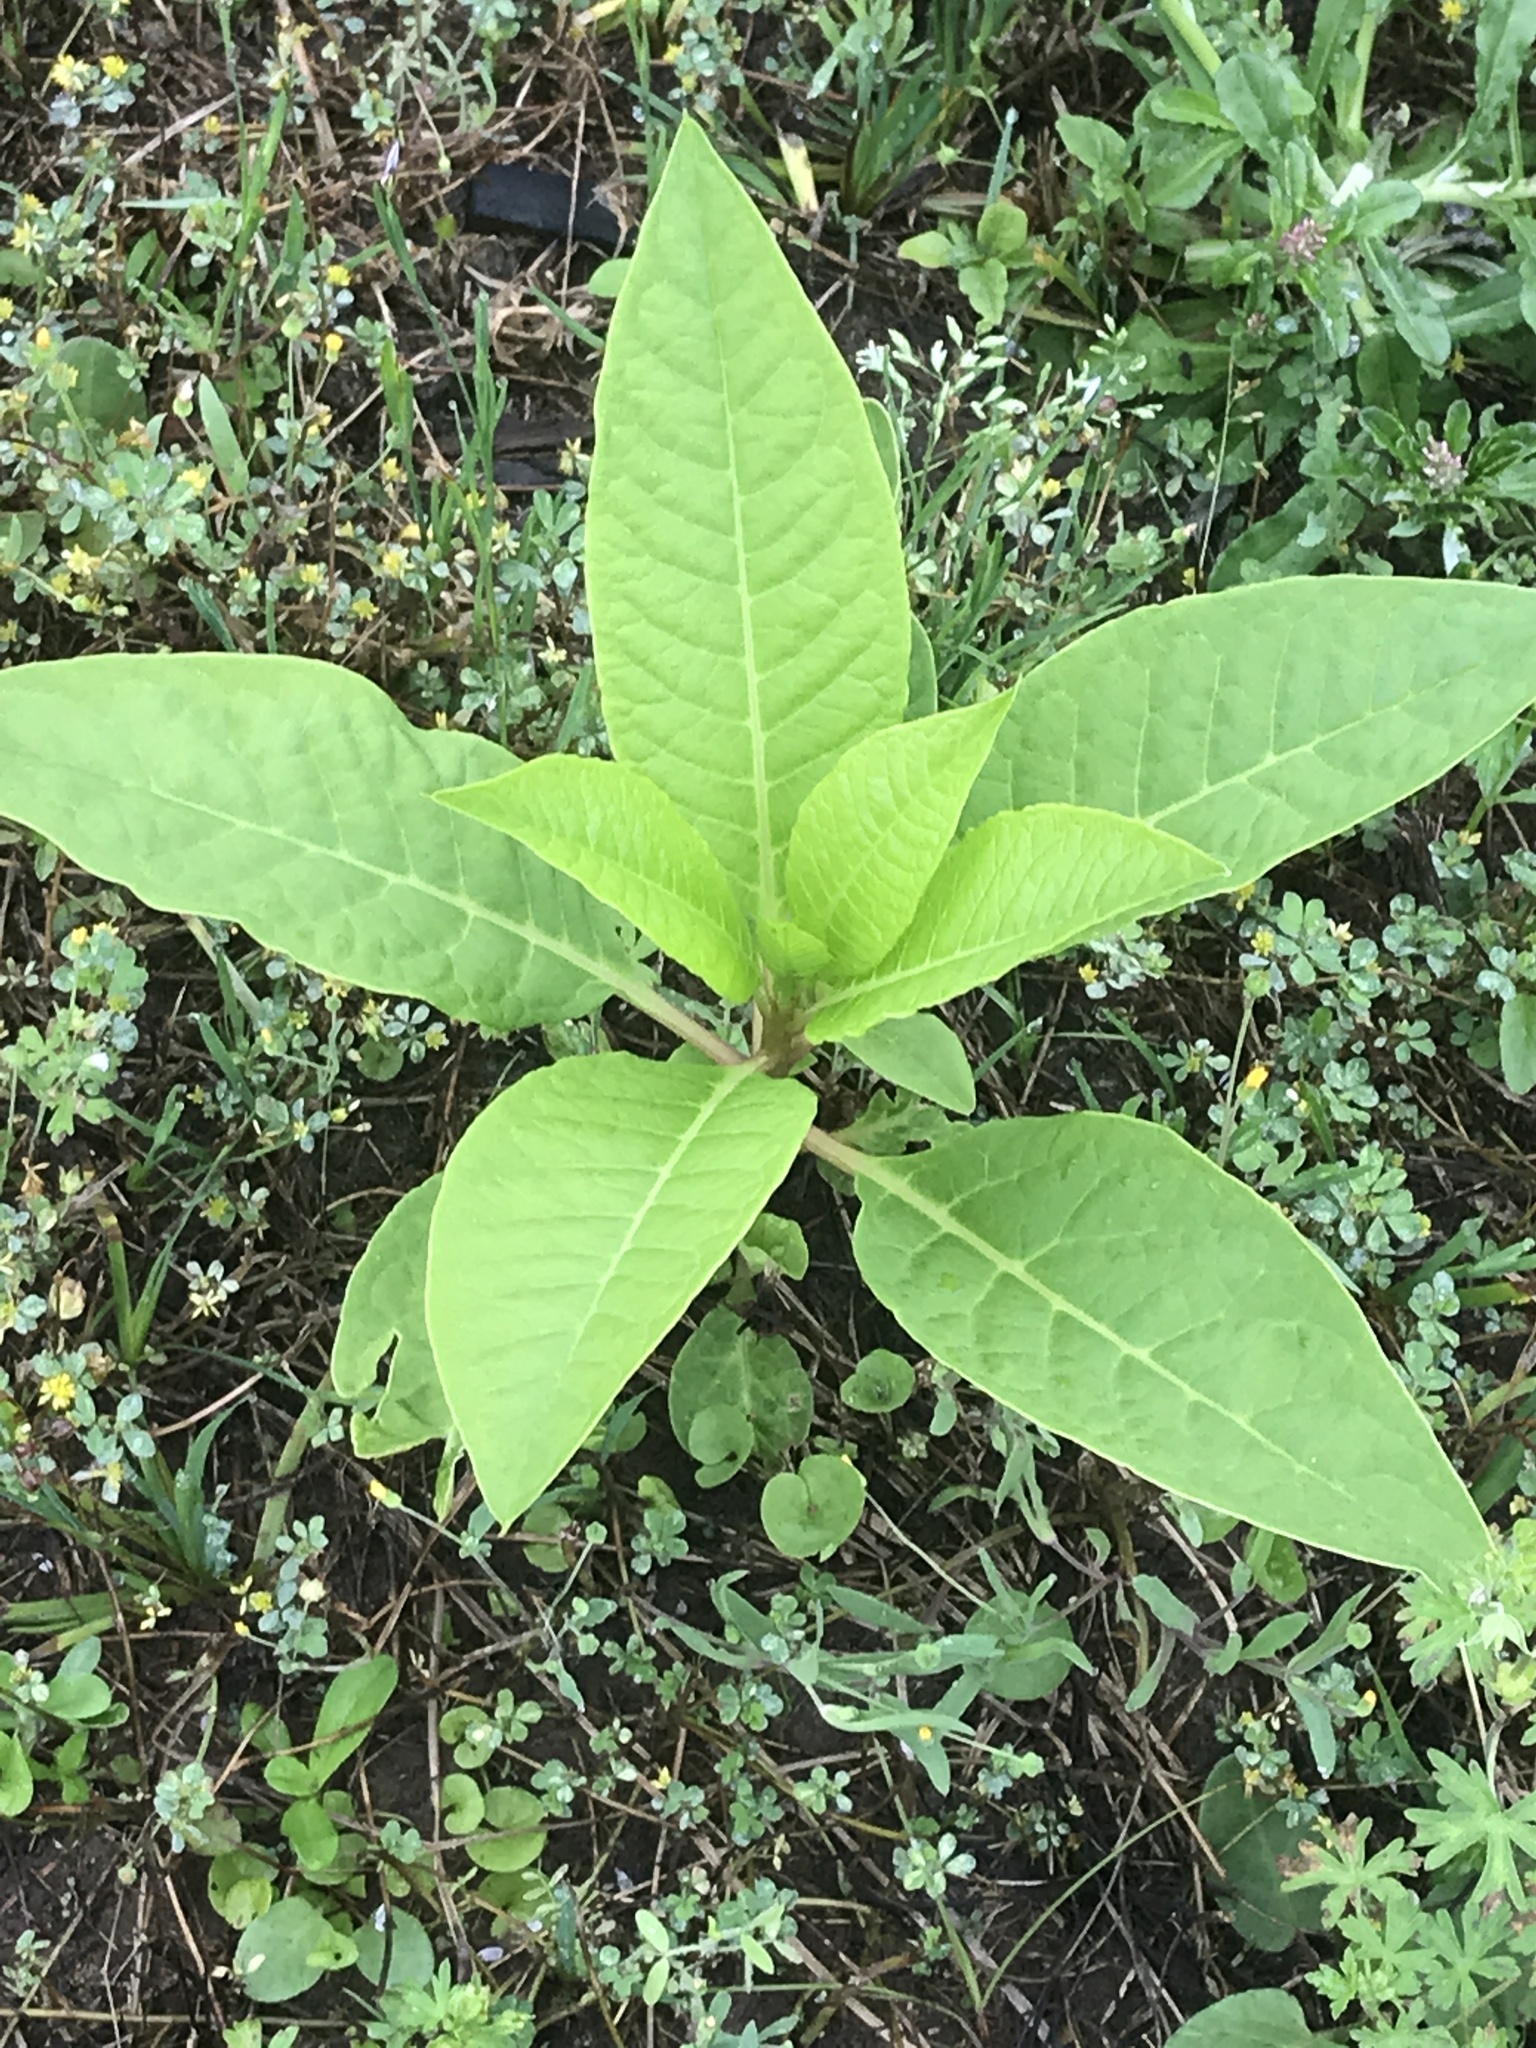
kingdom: Plantae
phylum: Tracheophyta
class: Magnoliopsida
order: Caryophyllales
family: Phytolaccaceae
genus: Phytolacca
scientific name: Phytolacca americana
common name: American pokeweed
